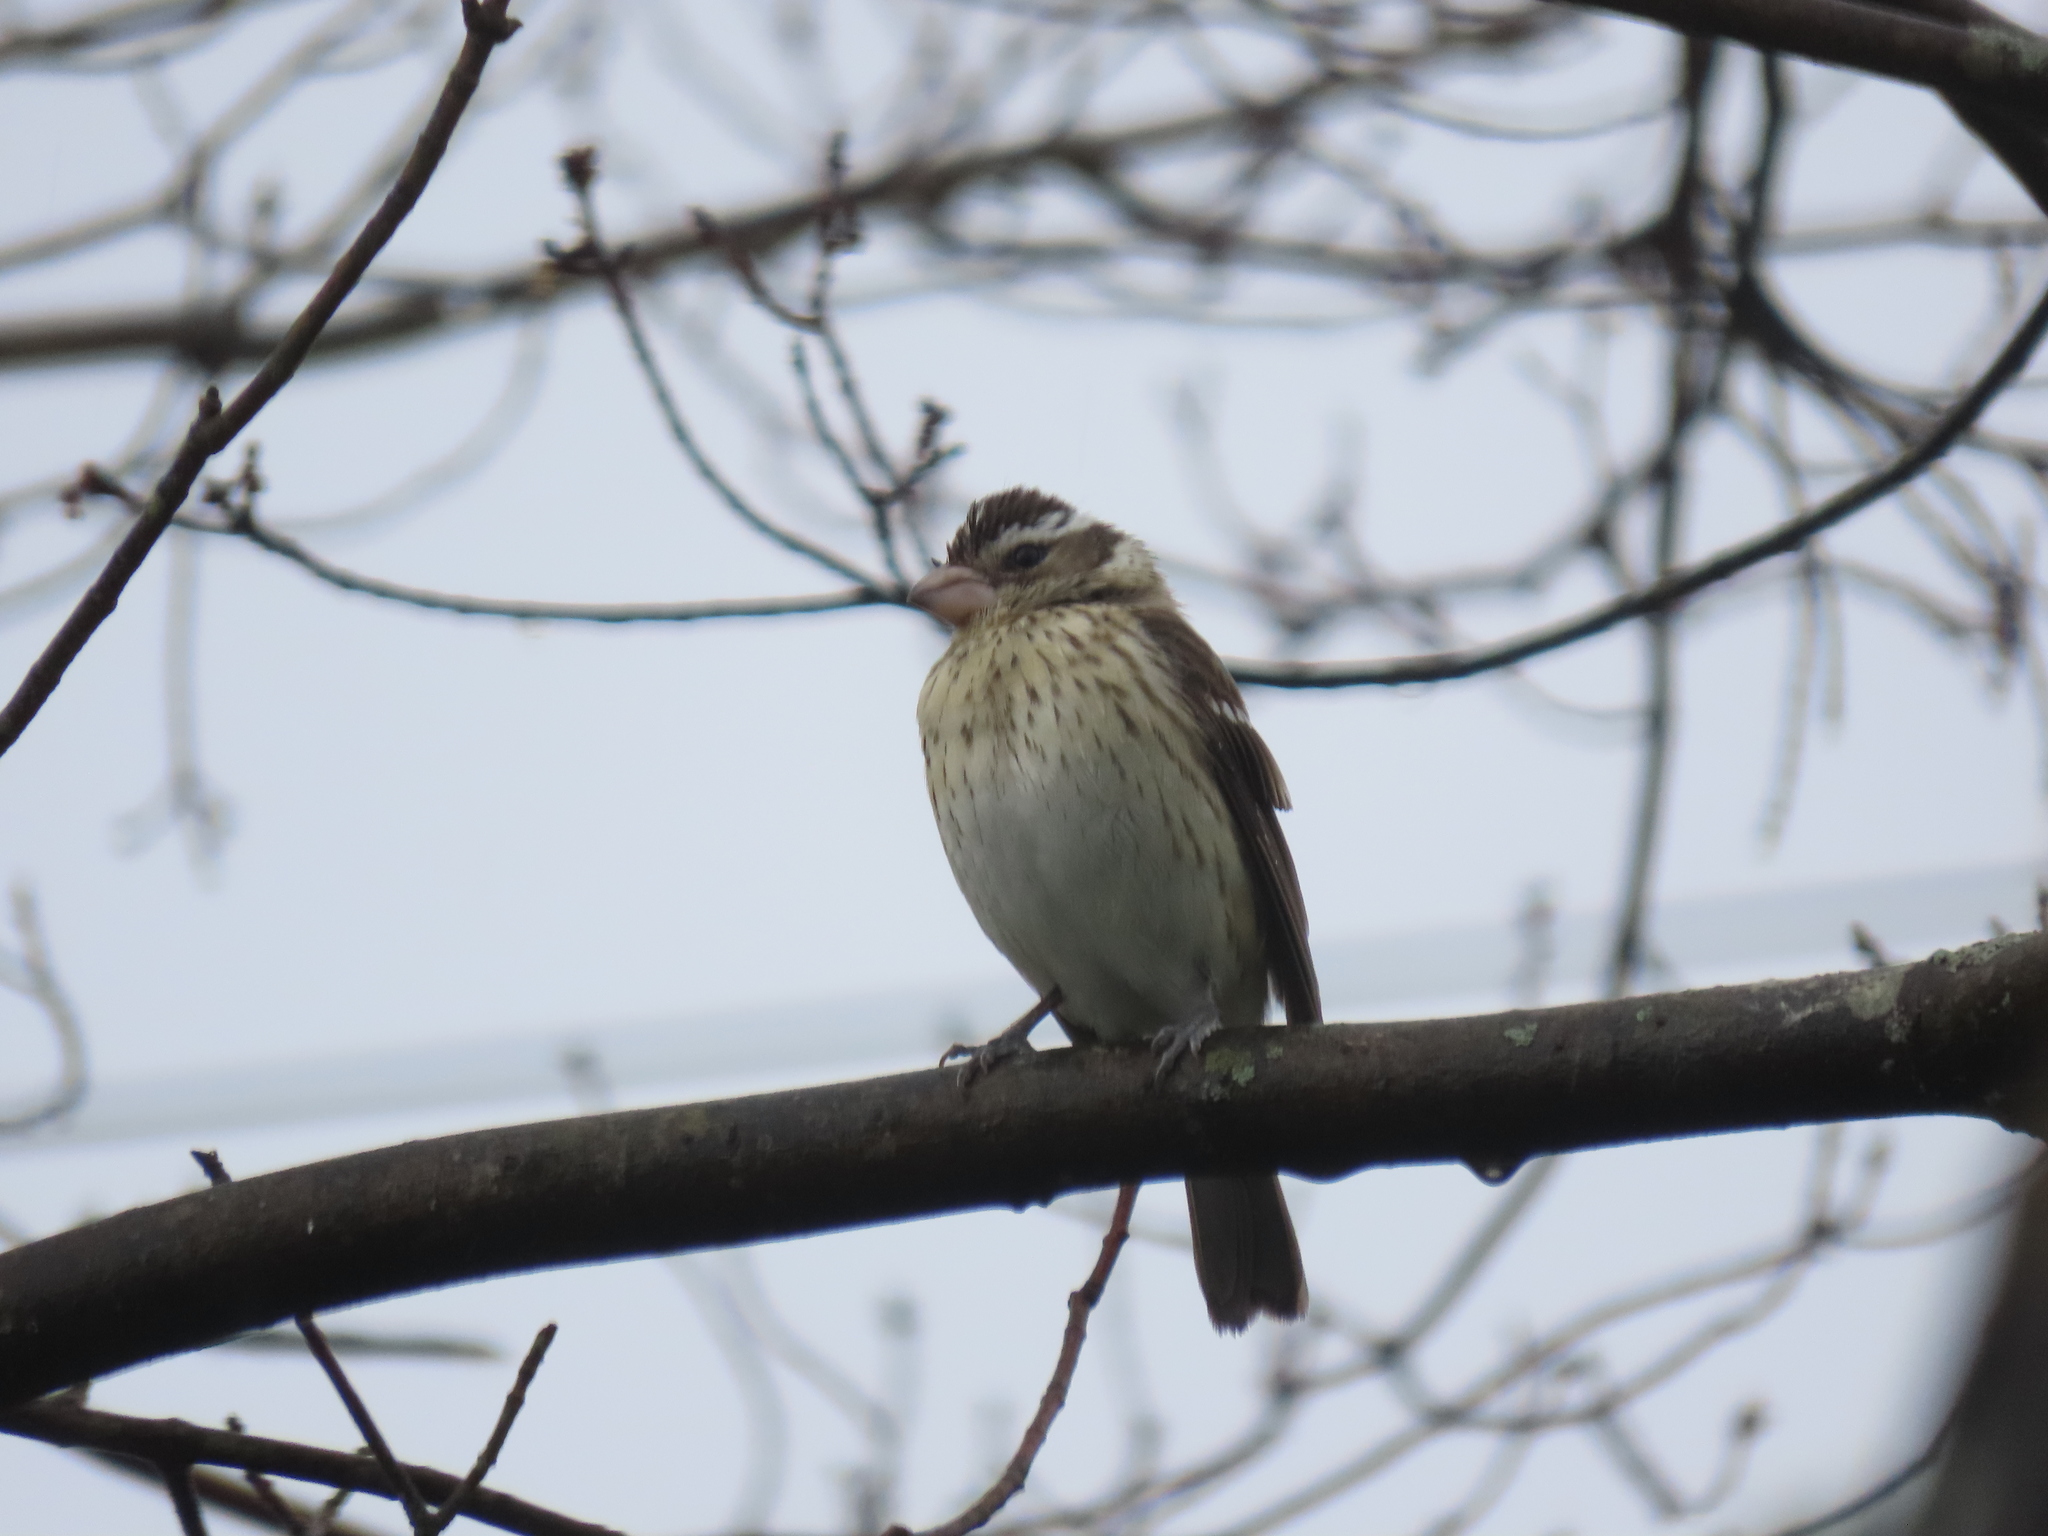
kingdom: Animalia
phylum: Chordata
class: Aves
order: Passeriformes
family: Cardinalidae
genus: Pheucticus
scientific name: Pheucticus ludovicianus
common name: Rose-breasted grosbeak
